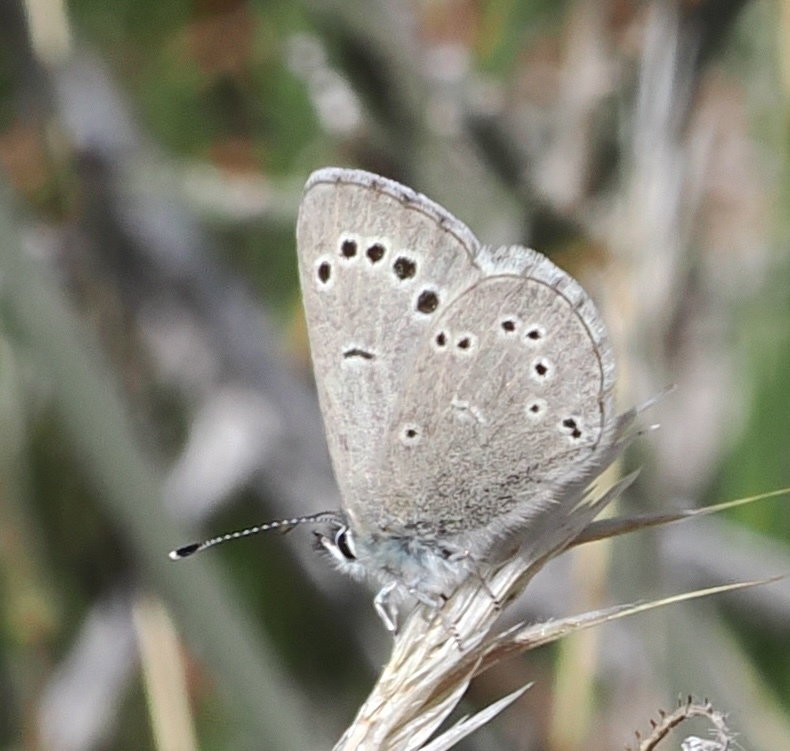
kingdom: Animalia
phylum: Arthropoda
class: Insecta
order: Lepidoptera
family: Lycaenidae
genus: Glaucopsyche
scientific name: Glaucopsyche lygdamus
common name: Silvery blue
